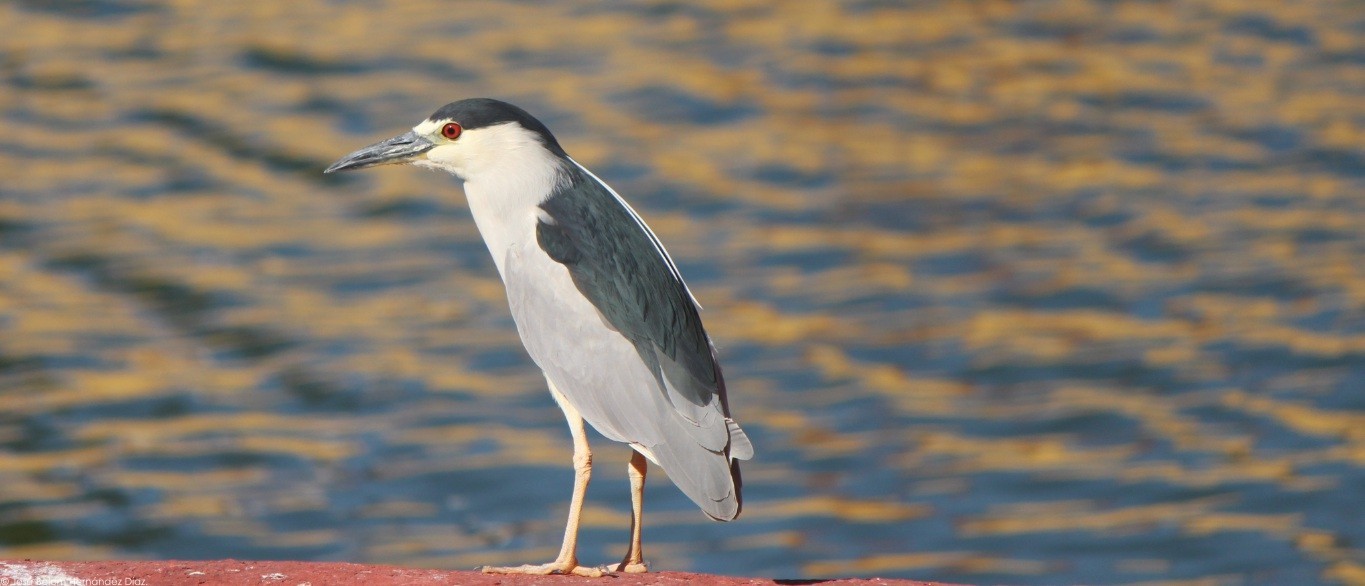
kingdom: Animalia
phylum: Chordata
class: Aves
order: Pelecaniformes
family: Ardeidae
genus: Nycticorax
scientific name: Nycticorax nycticorax
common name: Black-crowned night heron
